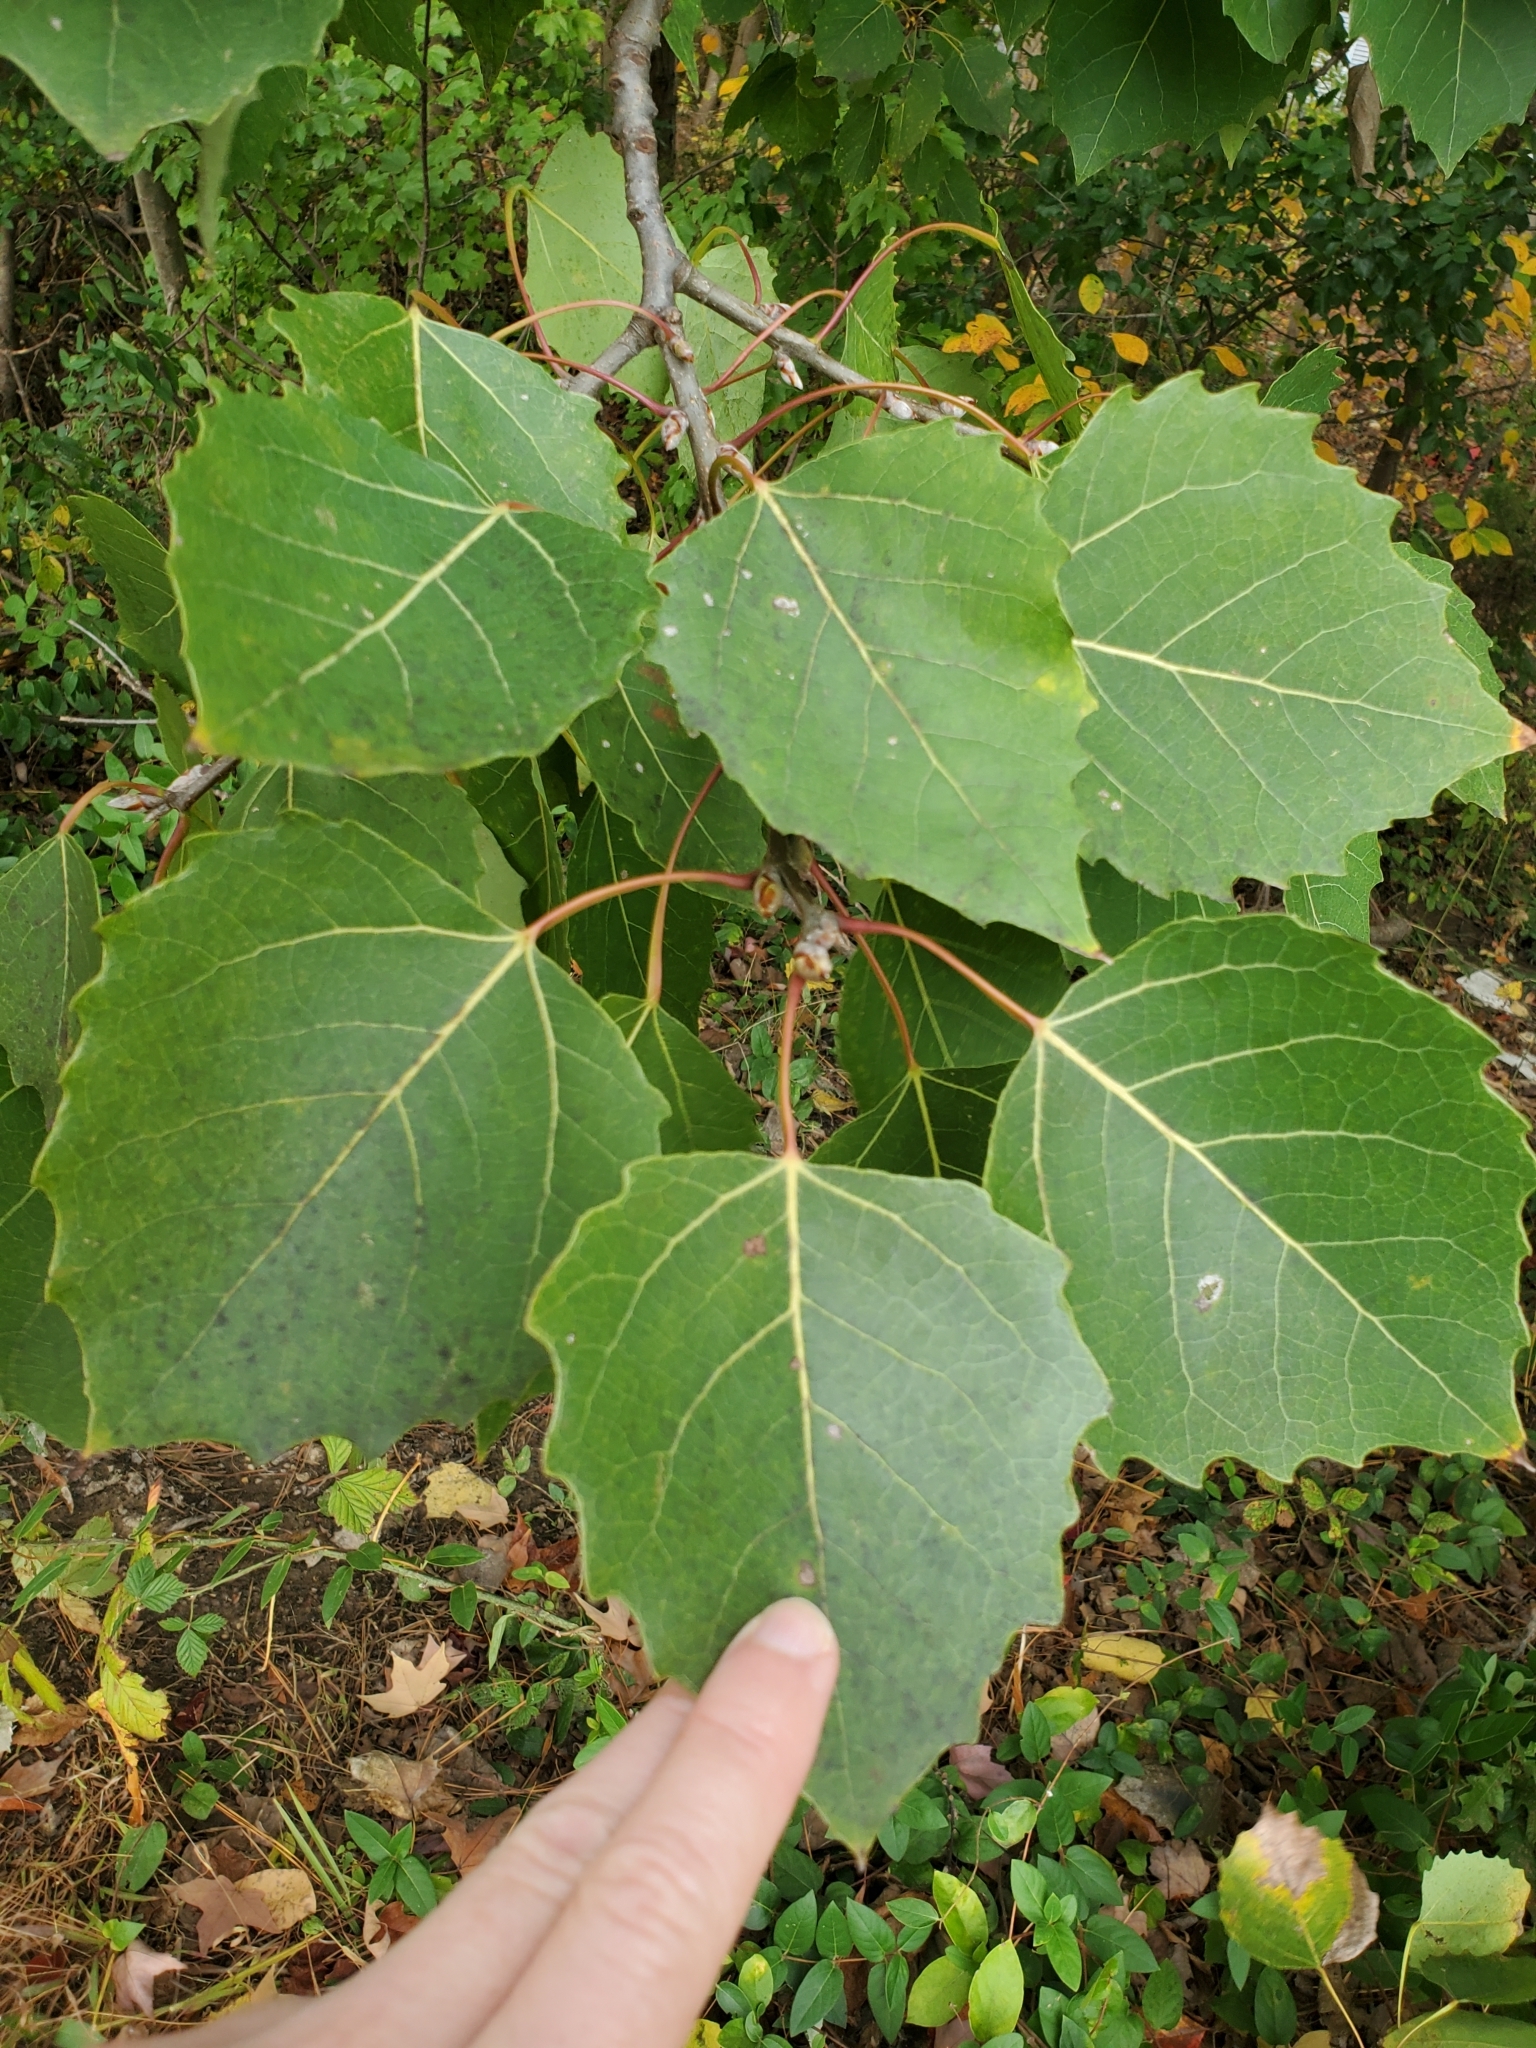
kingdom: Plantae
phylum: Tracheophyta
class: Magnoliopsida
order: Malpighiales
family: Salicaceae
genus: Populus
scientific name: Populus grandidentata
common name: Bigtooth aspen
